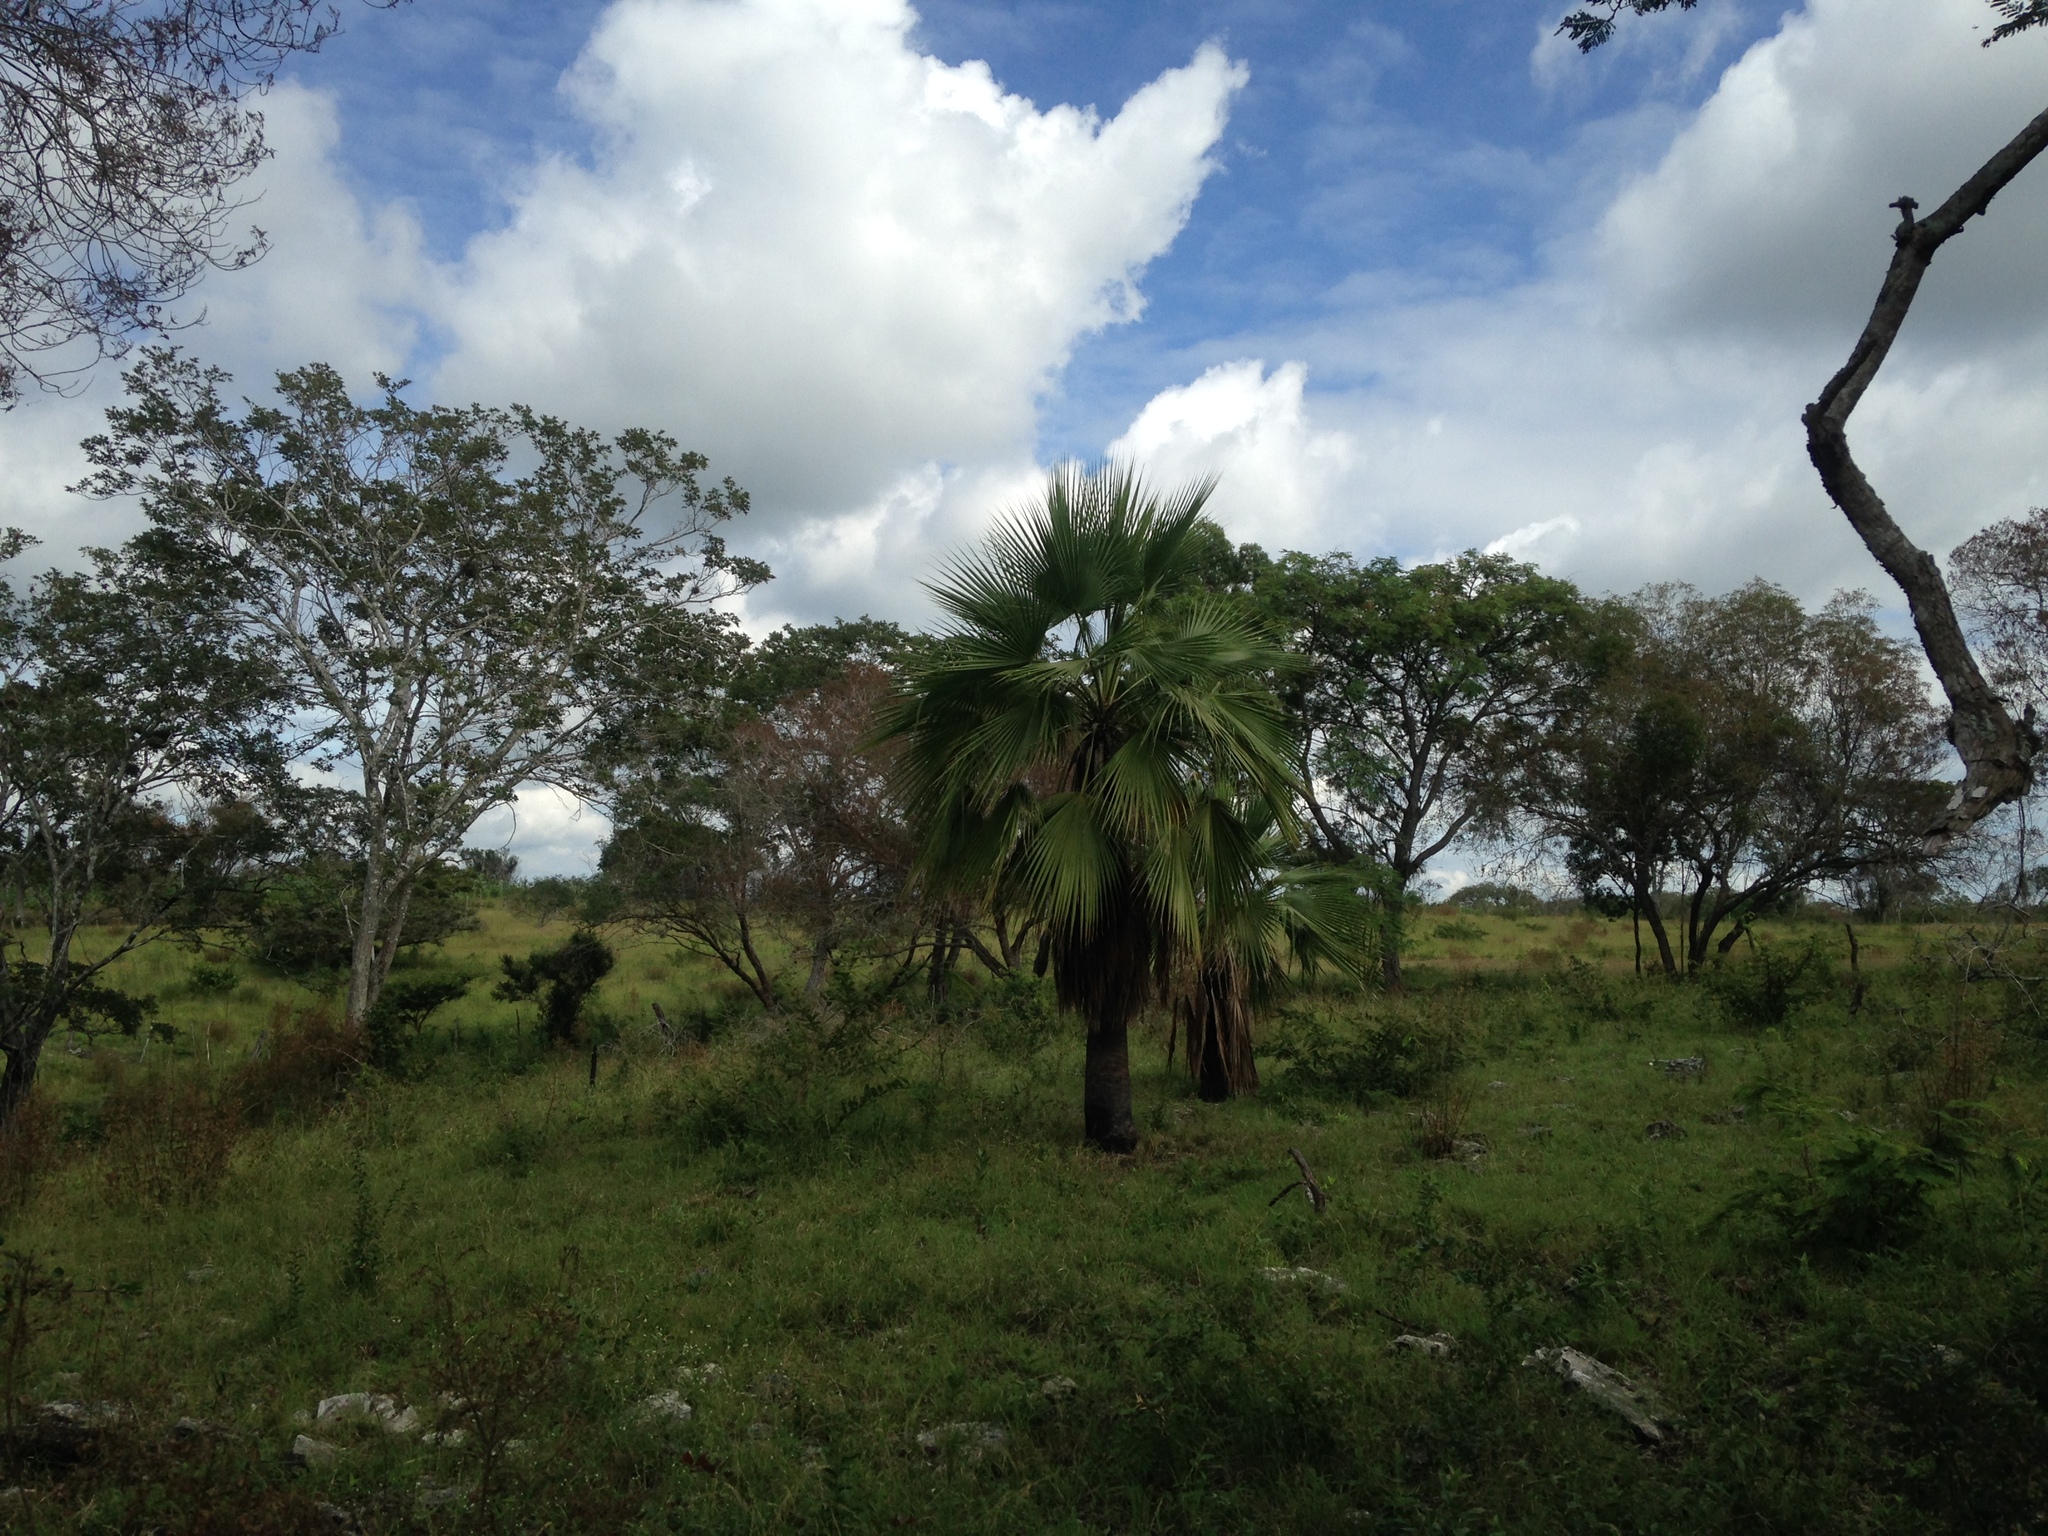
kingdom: Plantae
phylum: Tracheophyta
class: Liliopsida
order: Arecales
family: Arecaceae
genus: Brahea
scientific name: Brahea dulcis
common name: Apak palm
